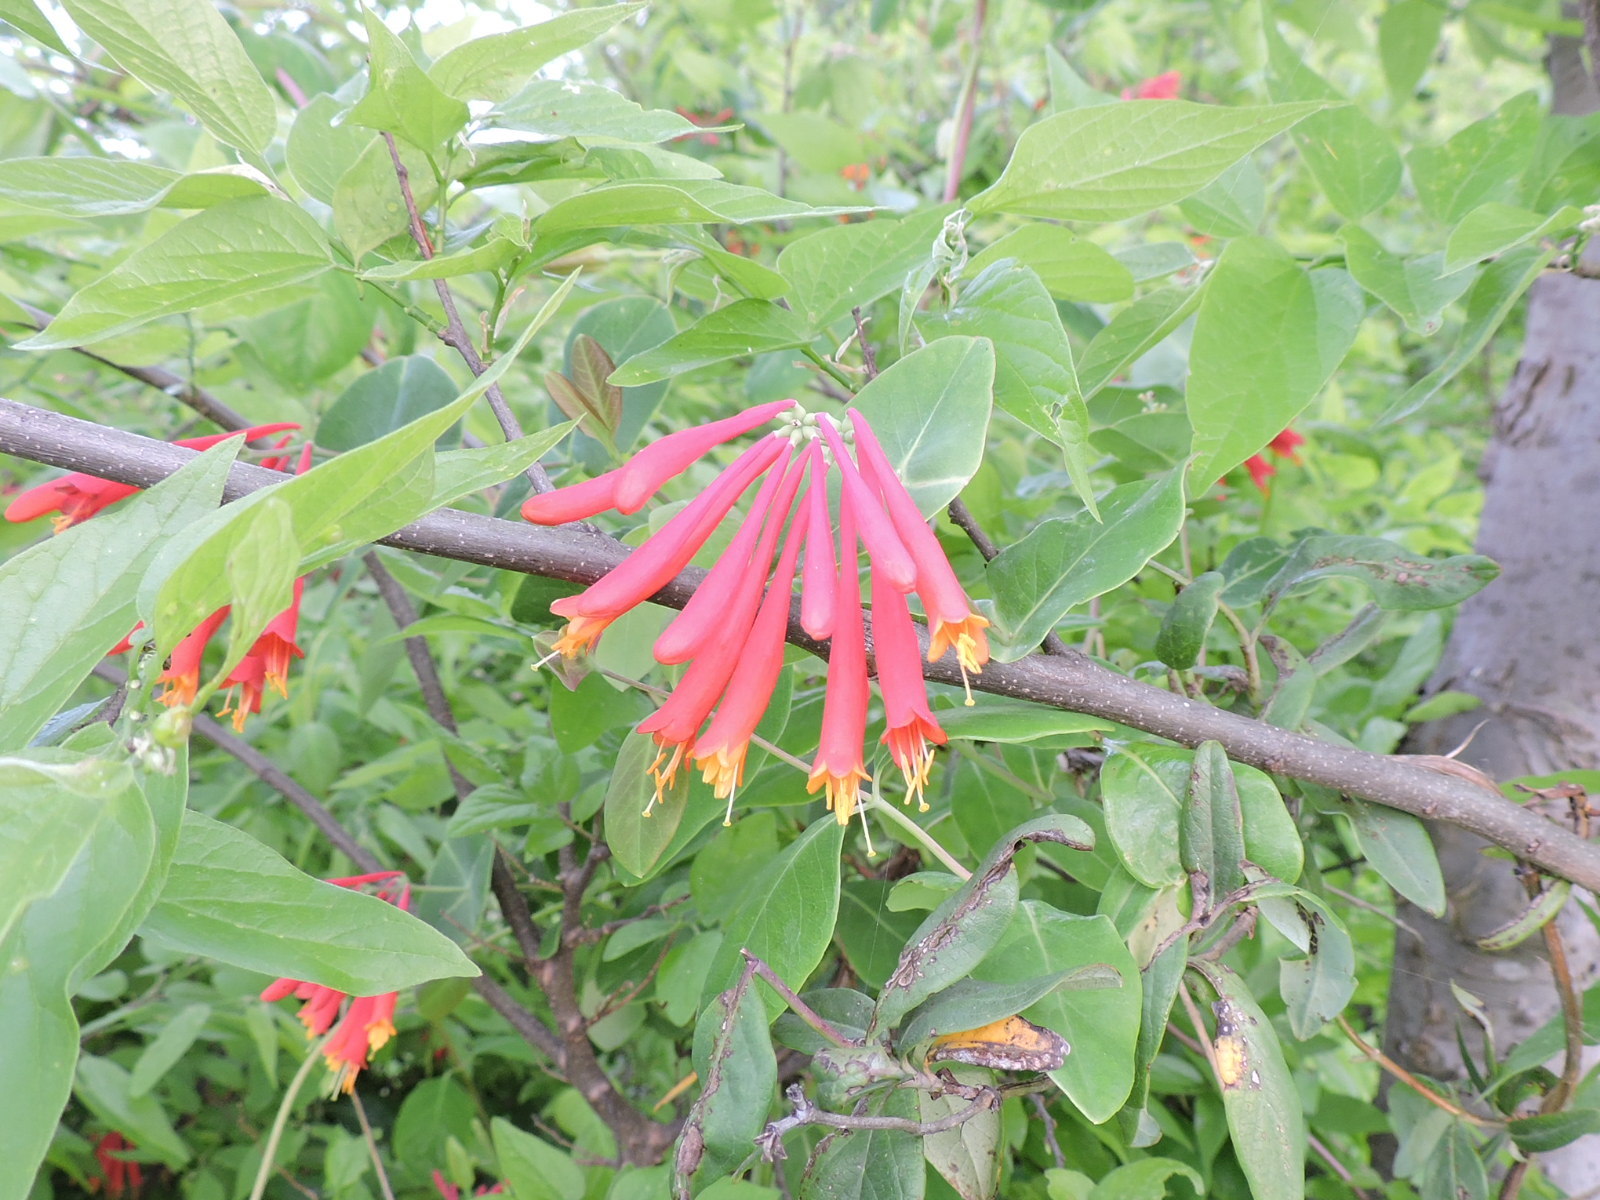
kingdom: Plantae
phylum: Tracheophyta
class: Magnoliopsida
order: Dipsacales
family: Caprifoliaceae
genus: Lonicera
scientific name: Lonicera sempervirens
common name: Coral honeysuckle
